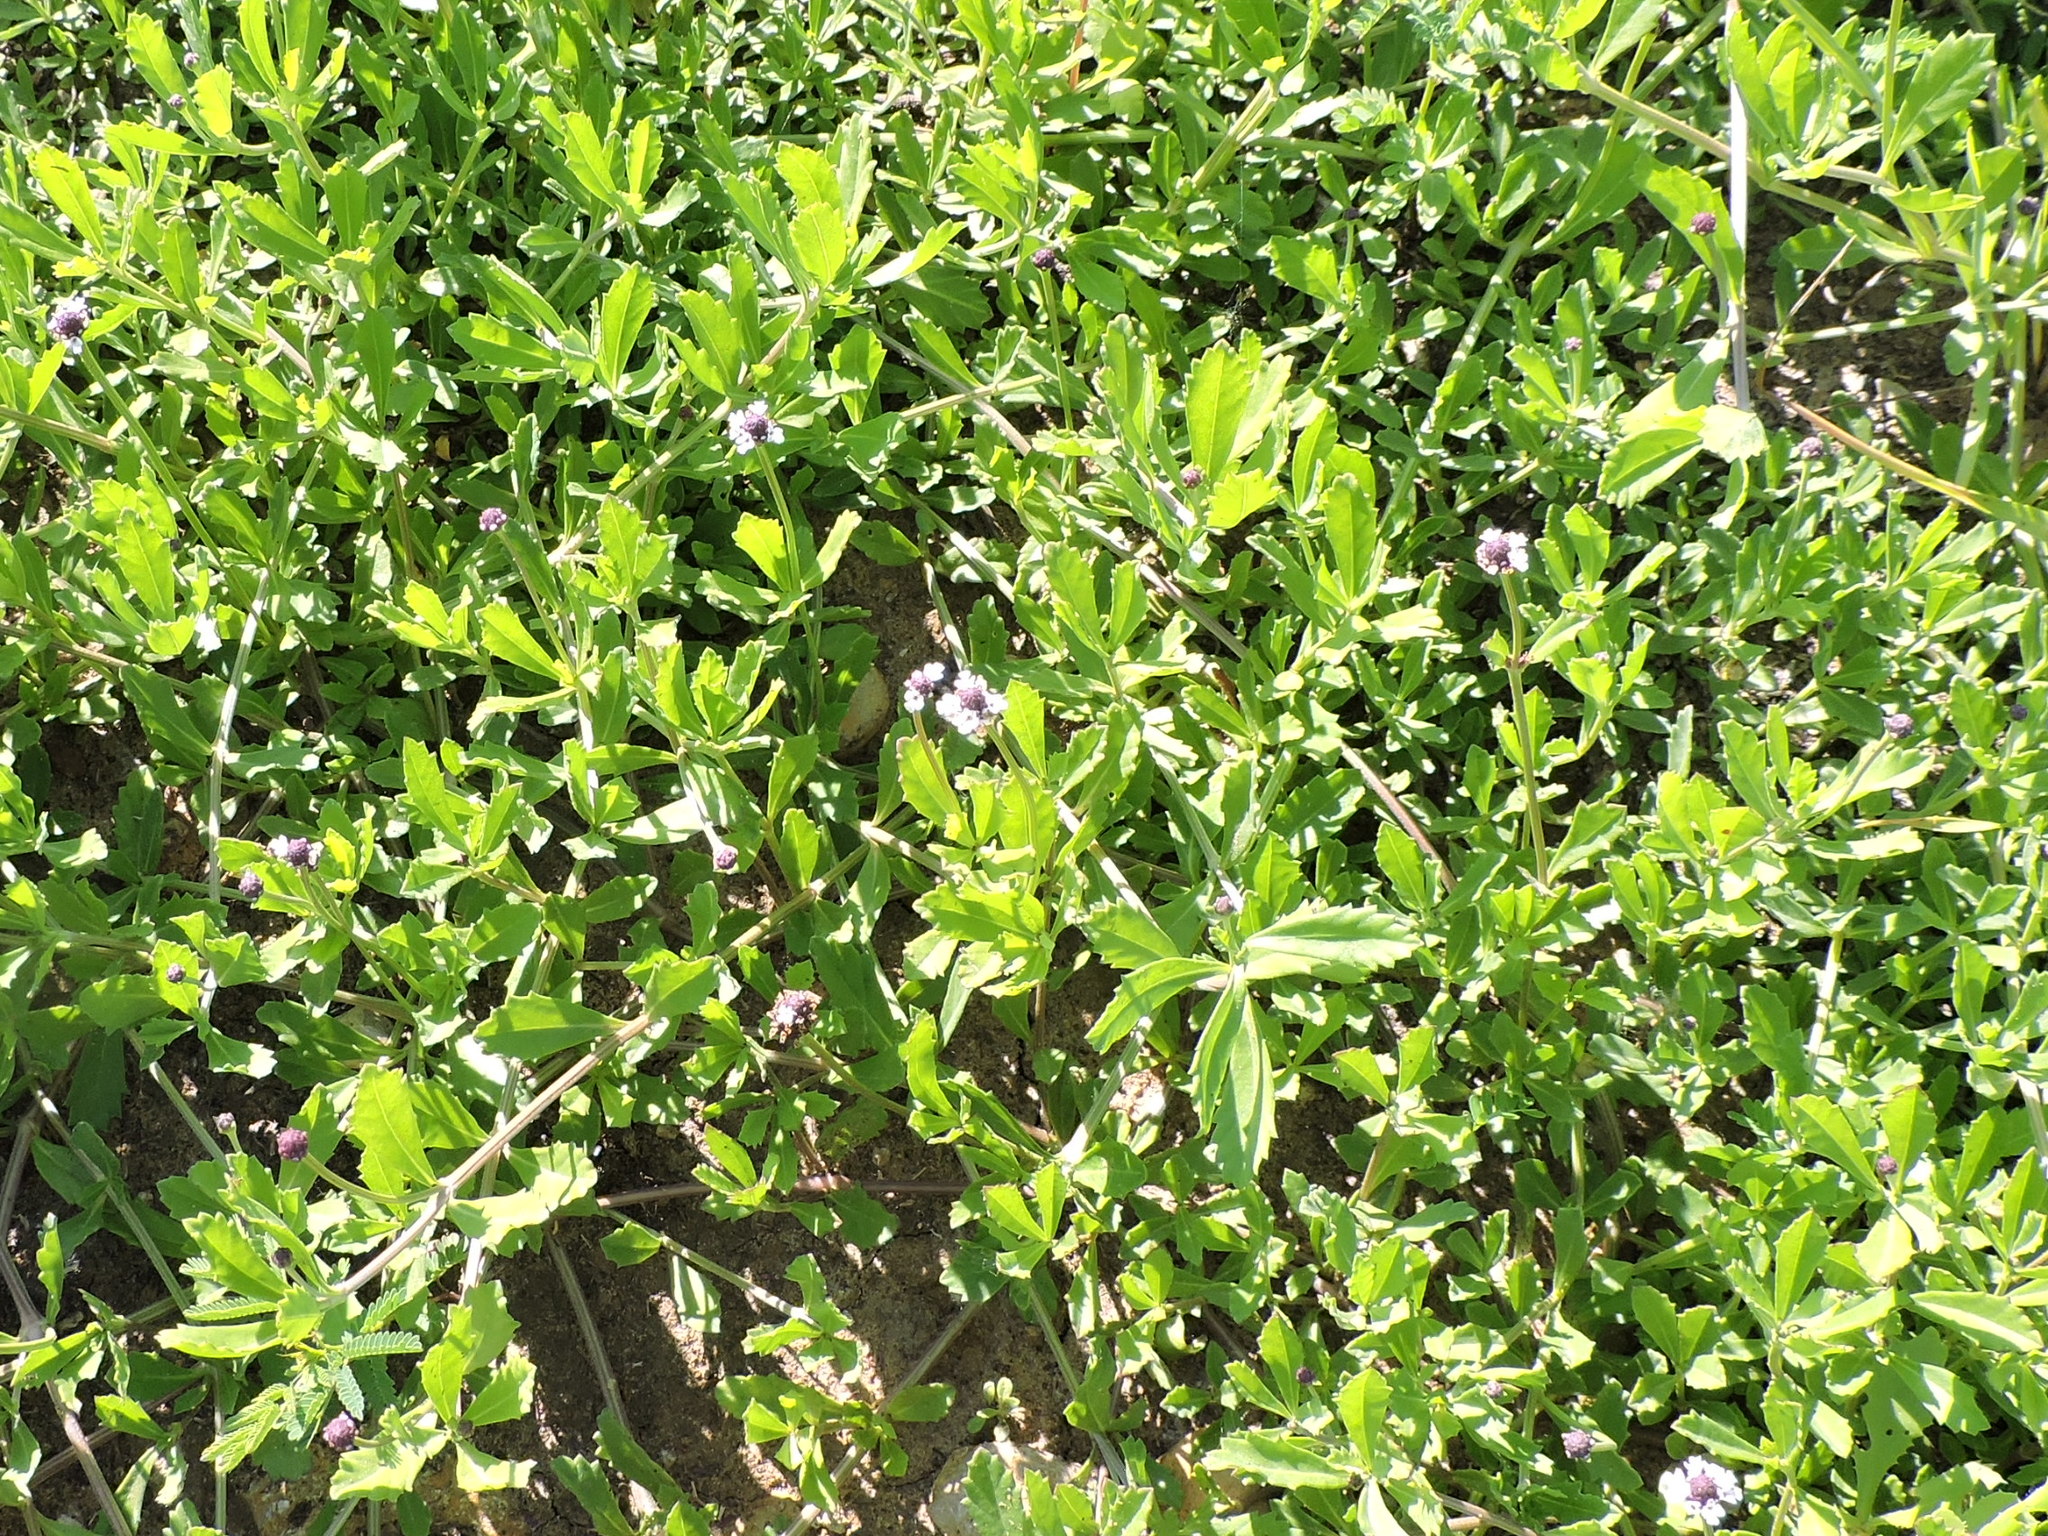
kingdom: Plantae
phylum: Tracheophyta
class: Magnoliopsida
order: Lamiales
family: Verbenaceae
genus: Phyla
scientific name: Phyla nodiflora
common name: Frogfruit
